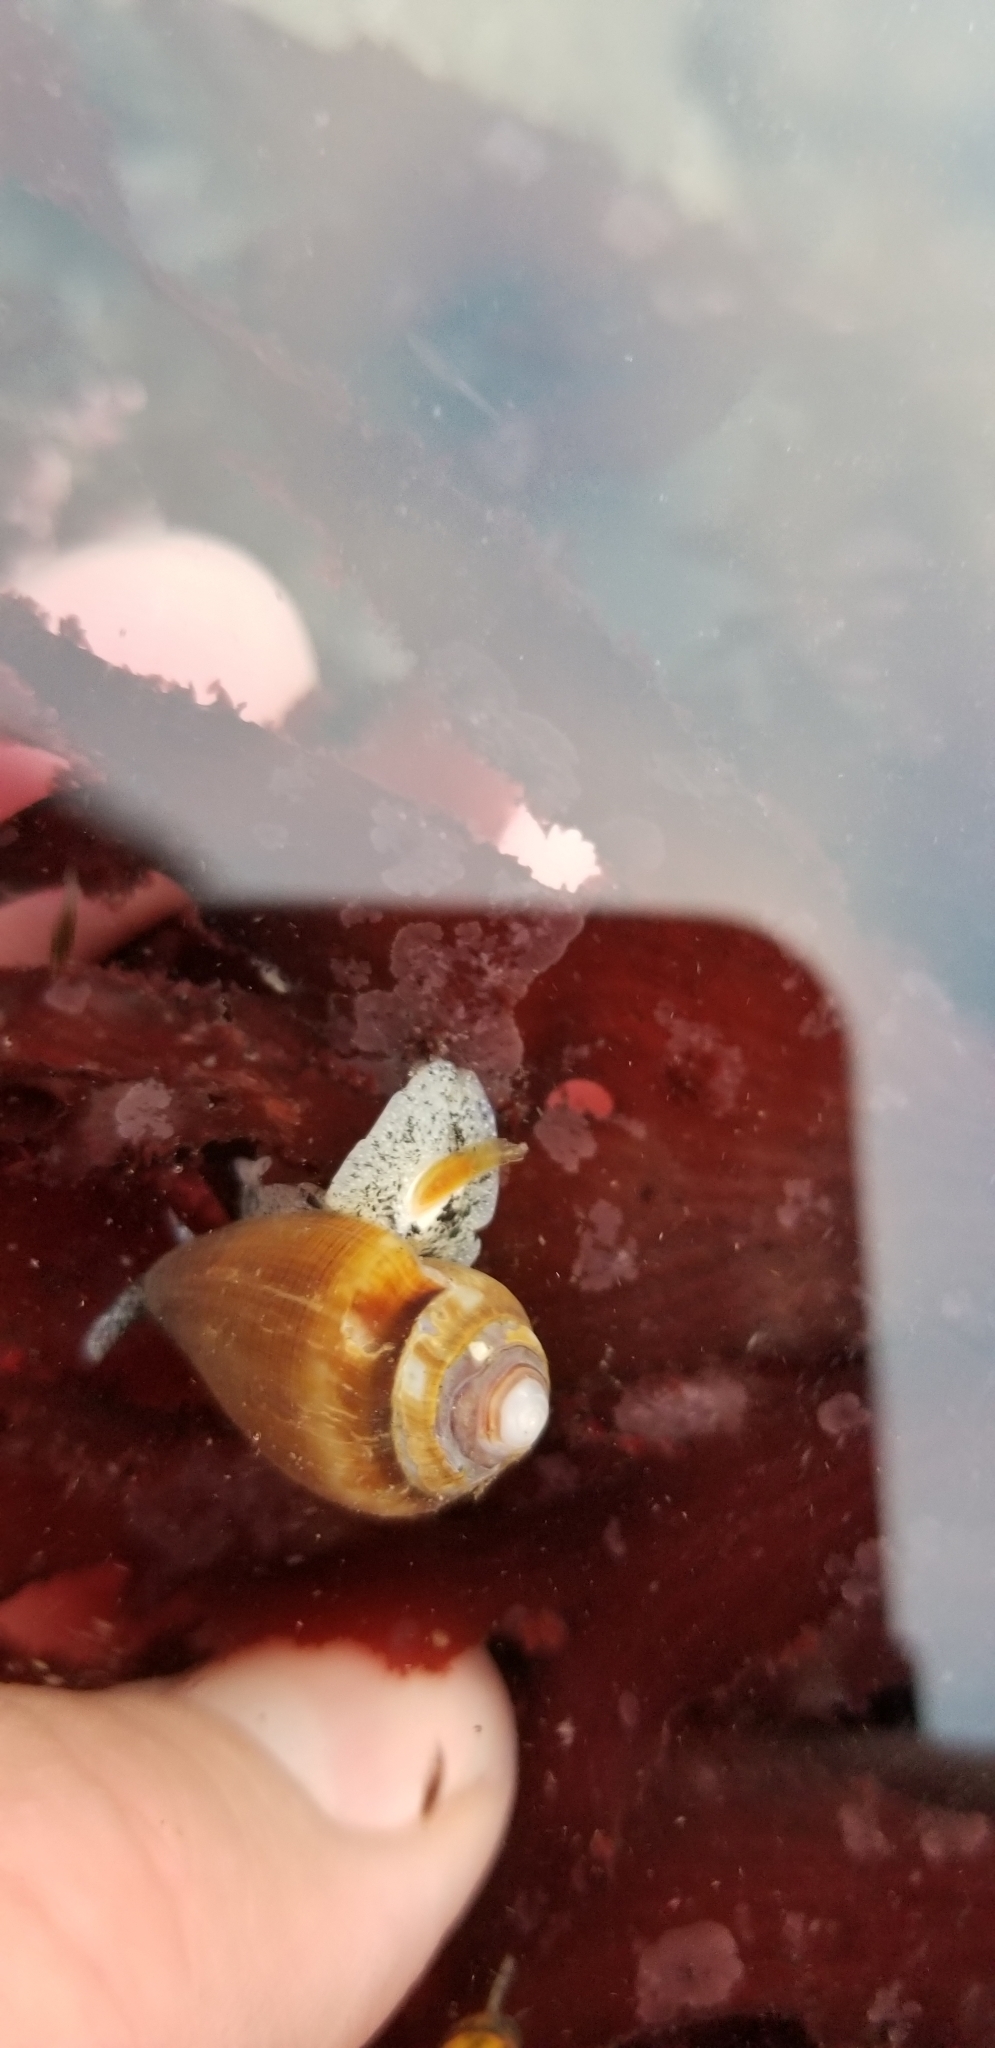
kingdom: Animalia
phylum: Mollusca
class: Gastropoda
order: Neogastropoda
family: Conidae
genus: Californiconus
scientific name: Californiconus californicus
